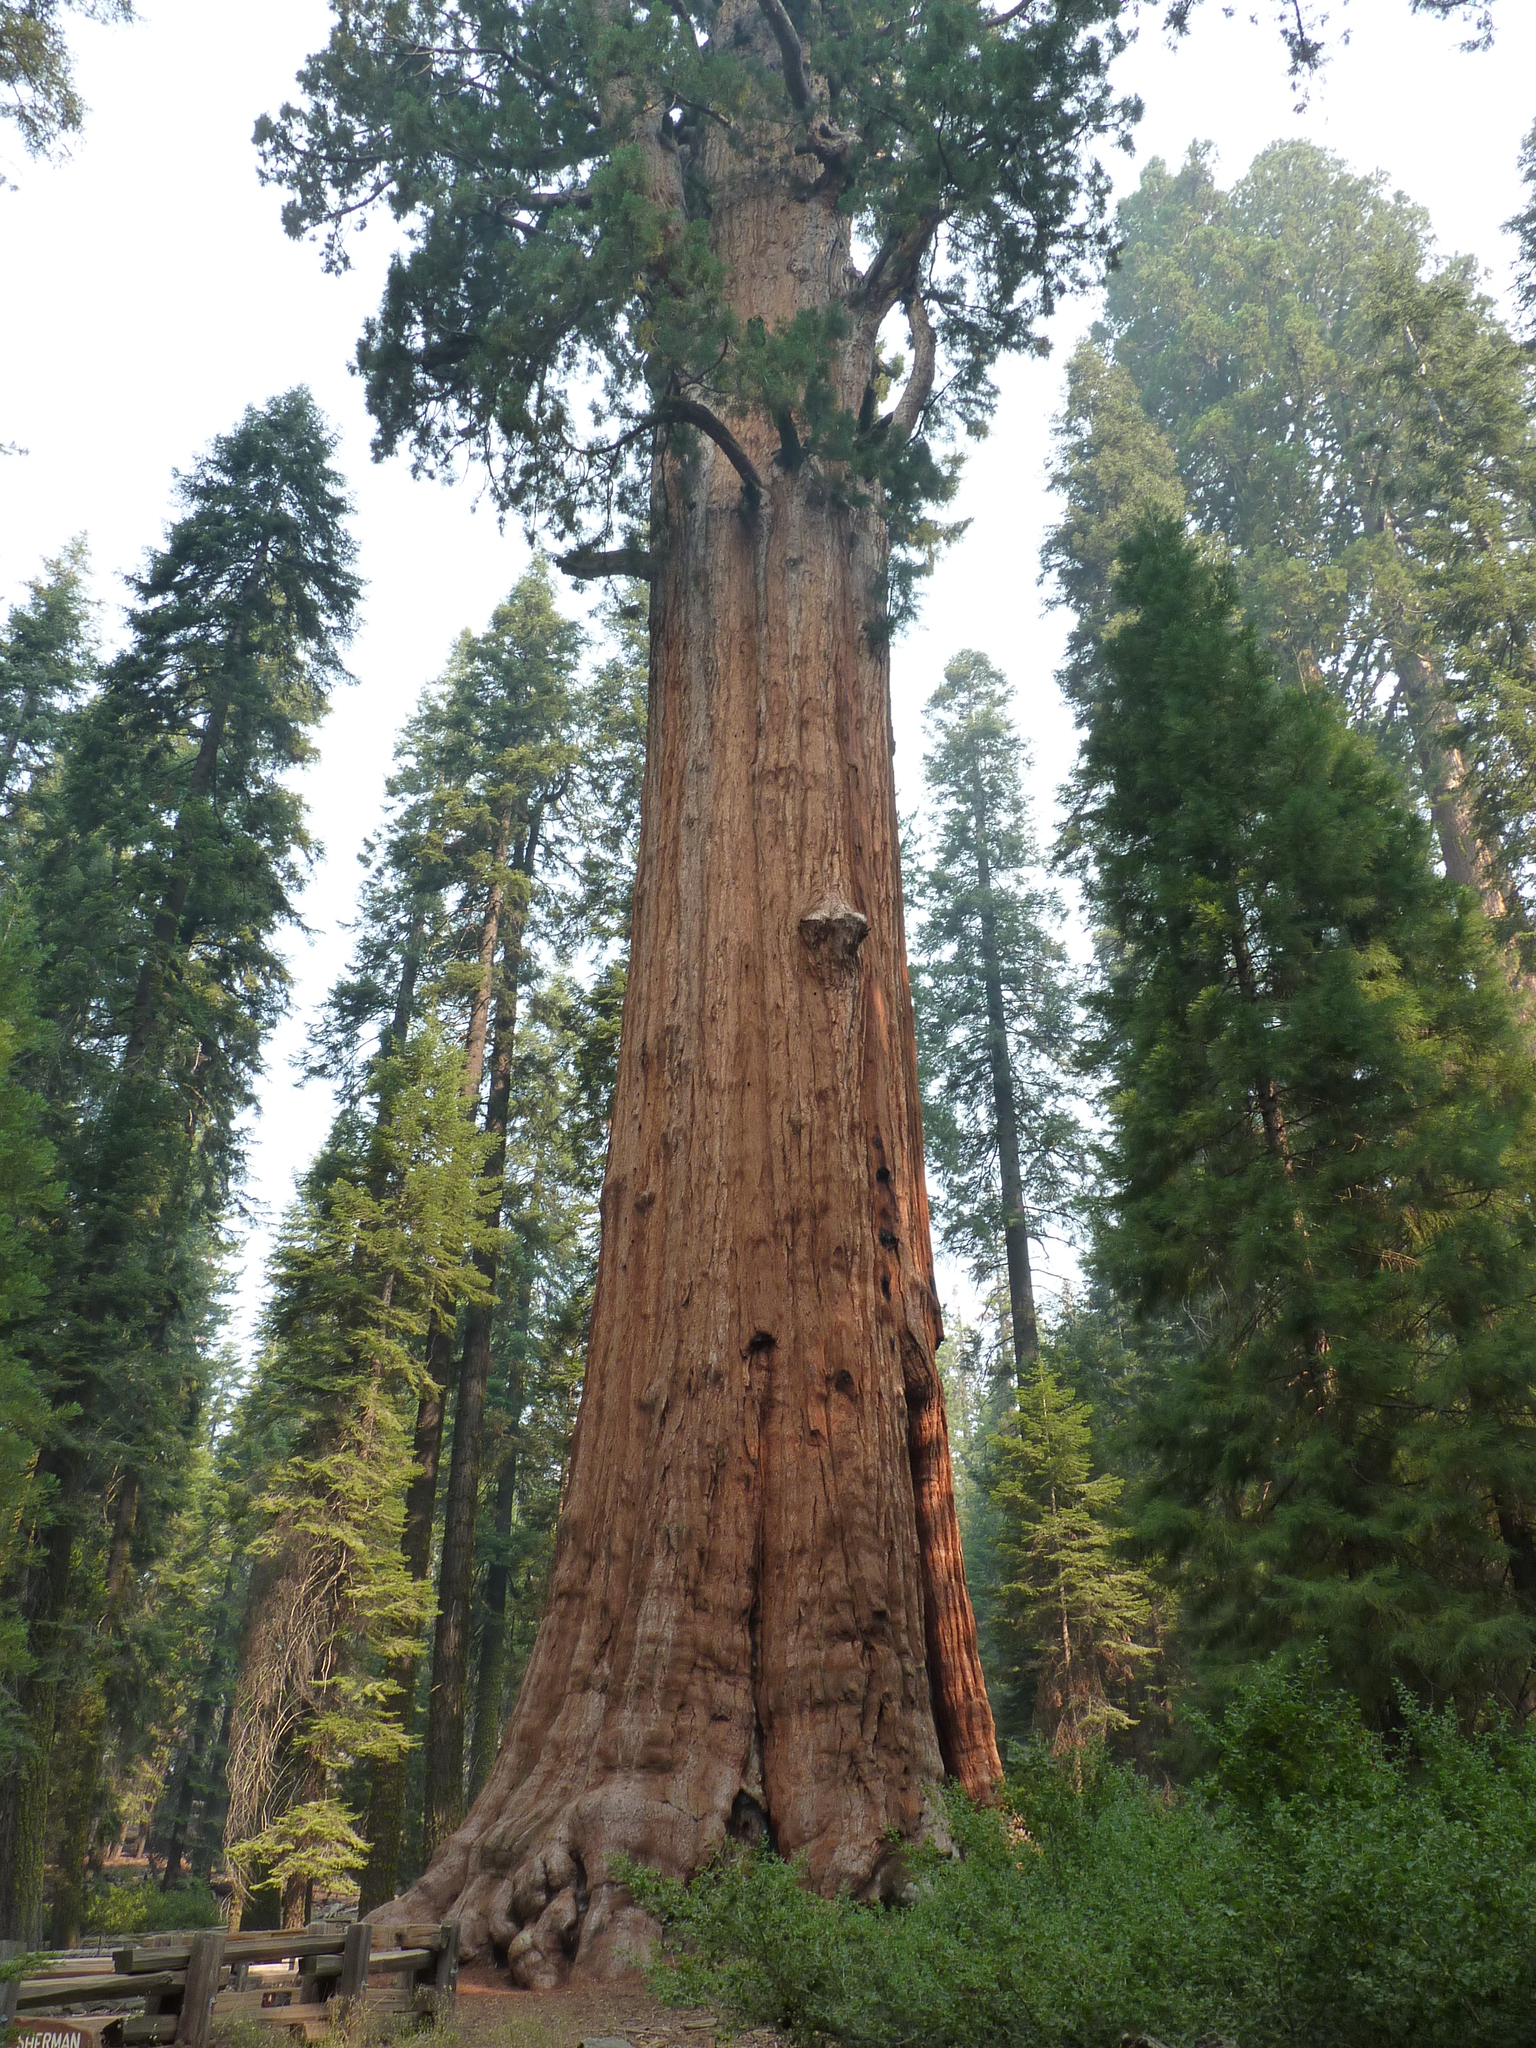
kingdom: Plantae
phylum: Tracheophyta
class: Pinopsida
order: Pinales
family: Cupressaceae
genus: Sequoiadendron
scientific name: Sequoiadendron giganteum
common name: Wellingtonia
